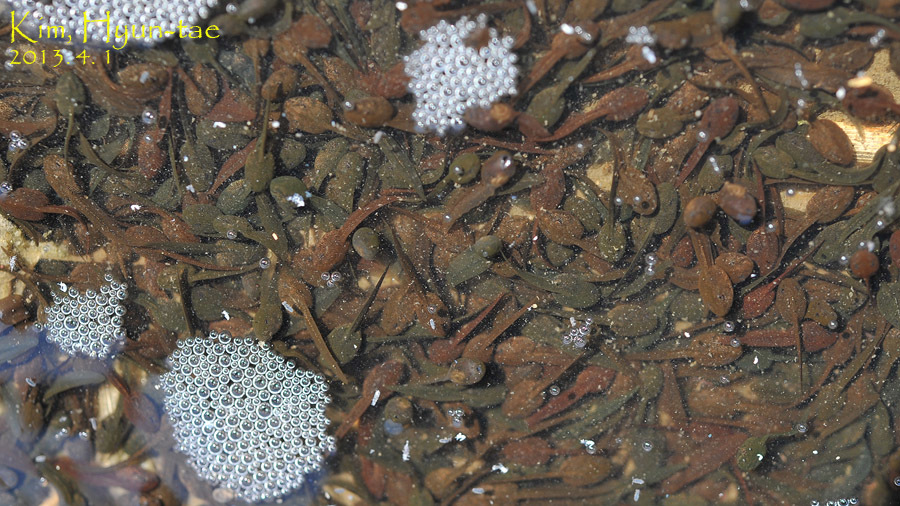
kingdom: Animalia
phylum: Chordata
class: Amphibia
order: Anura
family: Ranidae
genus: Rana
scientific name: Rana uenoi
